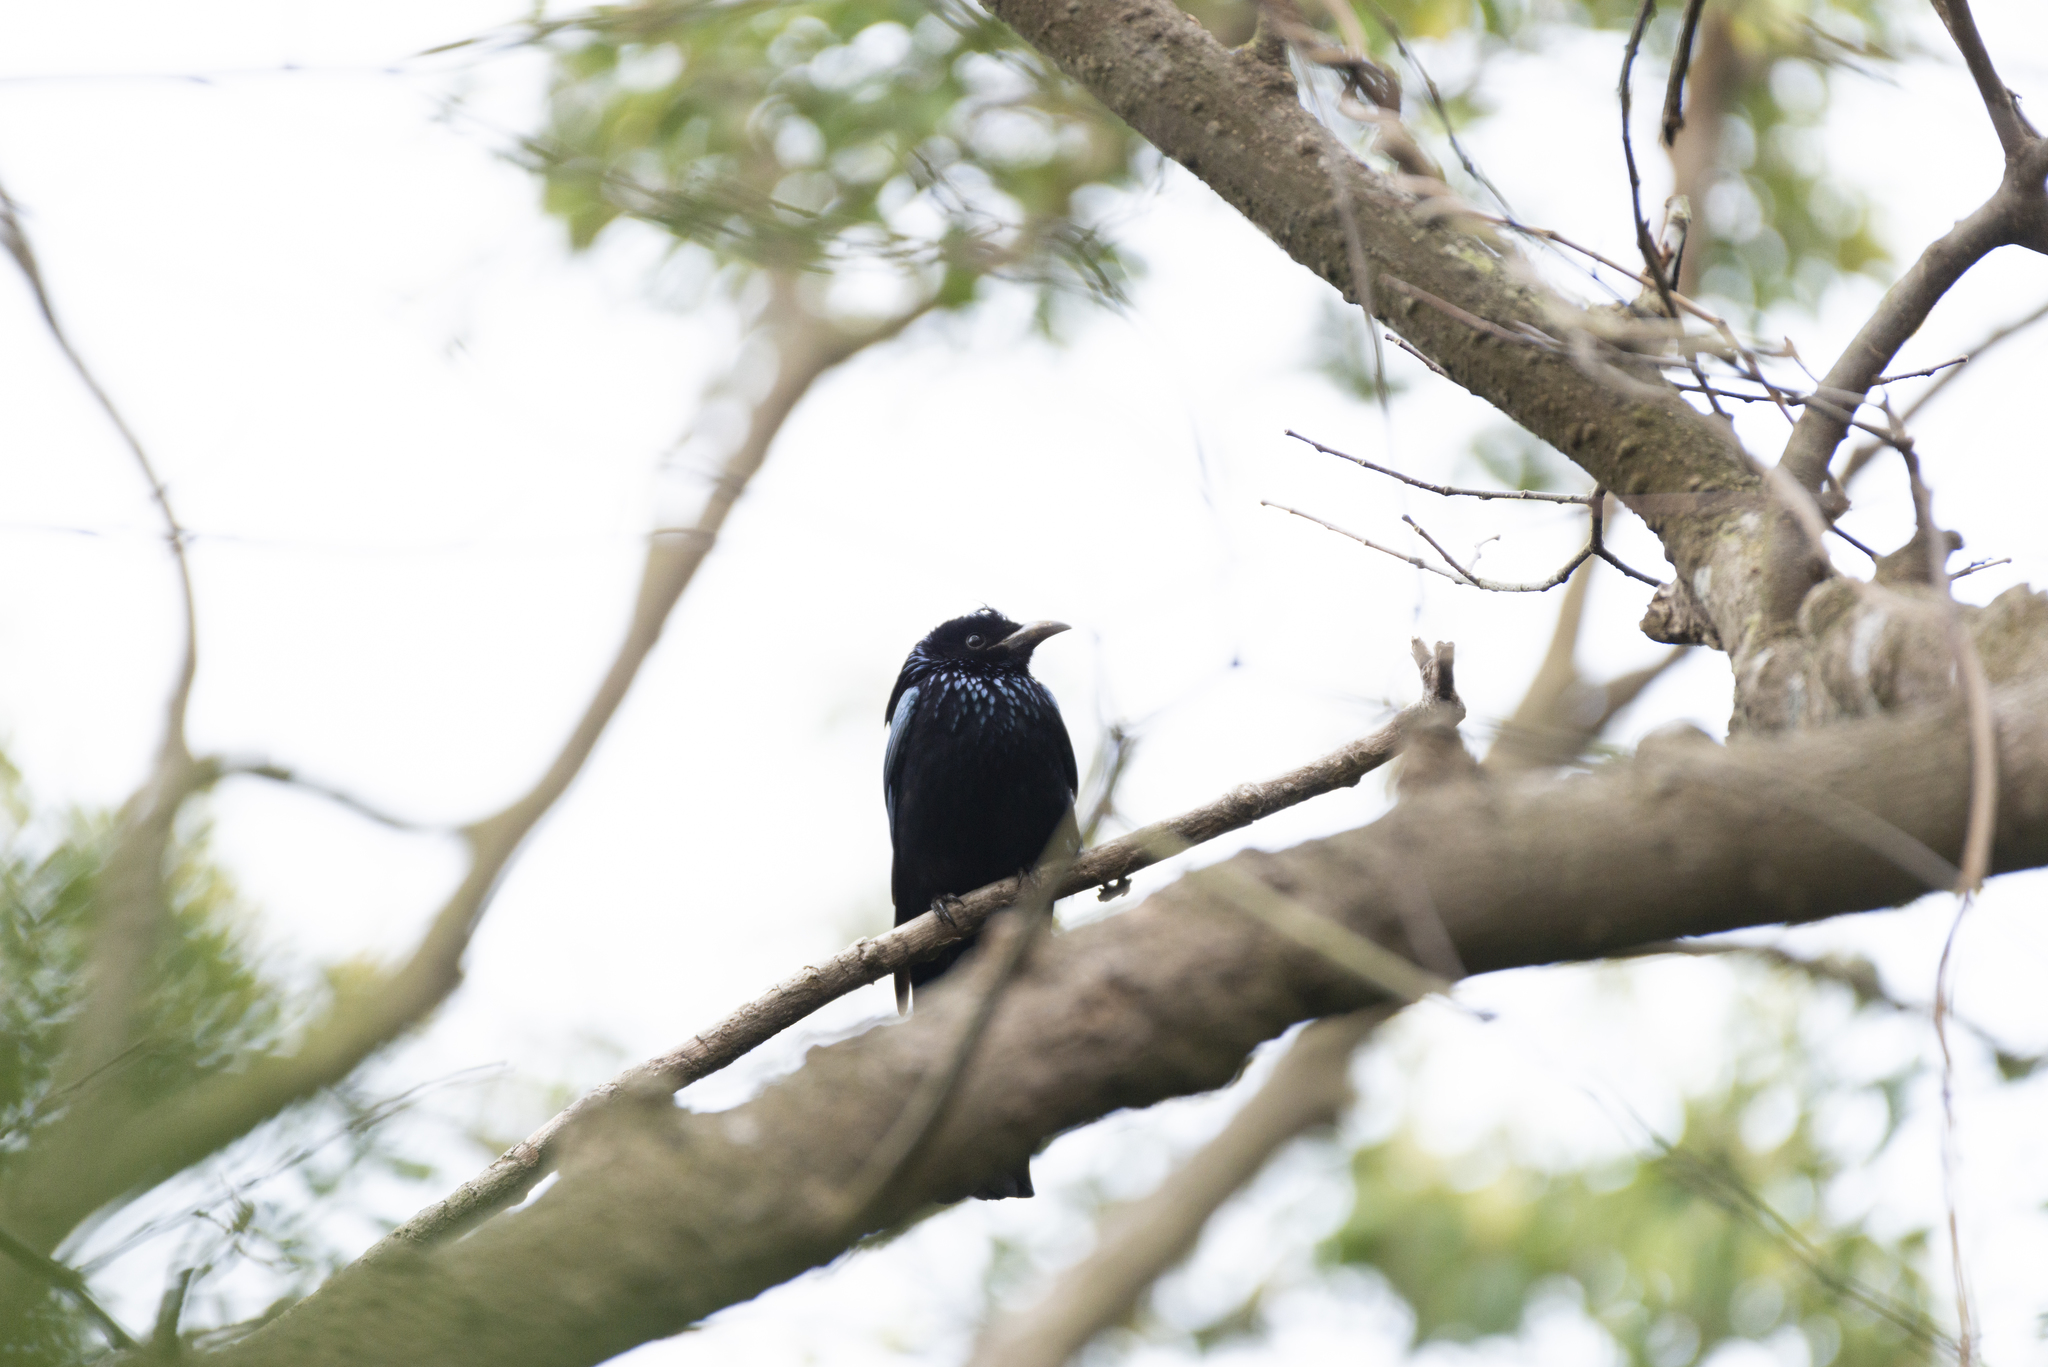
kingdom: Animalia
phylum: Chordata
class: Aves
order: Passeriformes
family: Dicruridae
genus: Dicrurus
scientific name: Dicrurus hottentottus
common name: Hair-crested drongo
